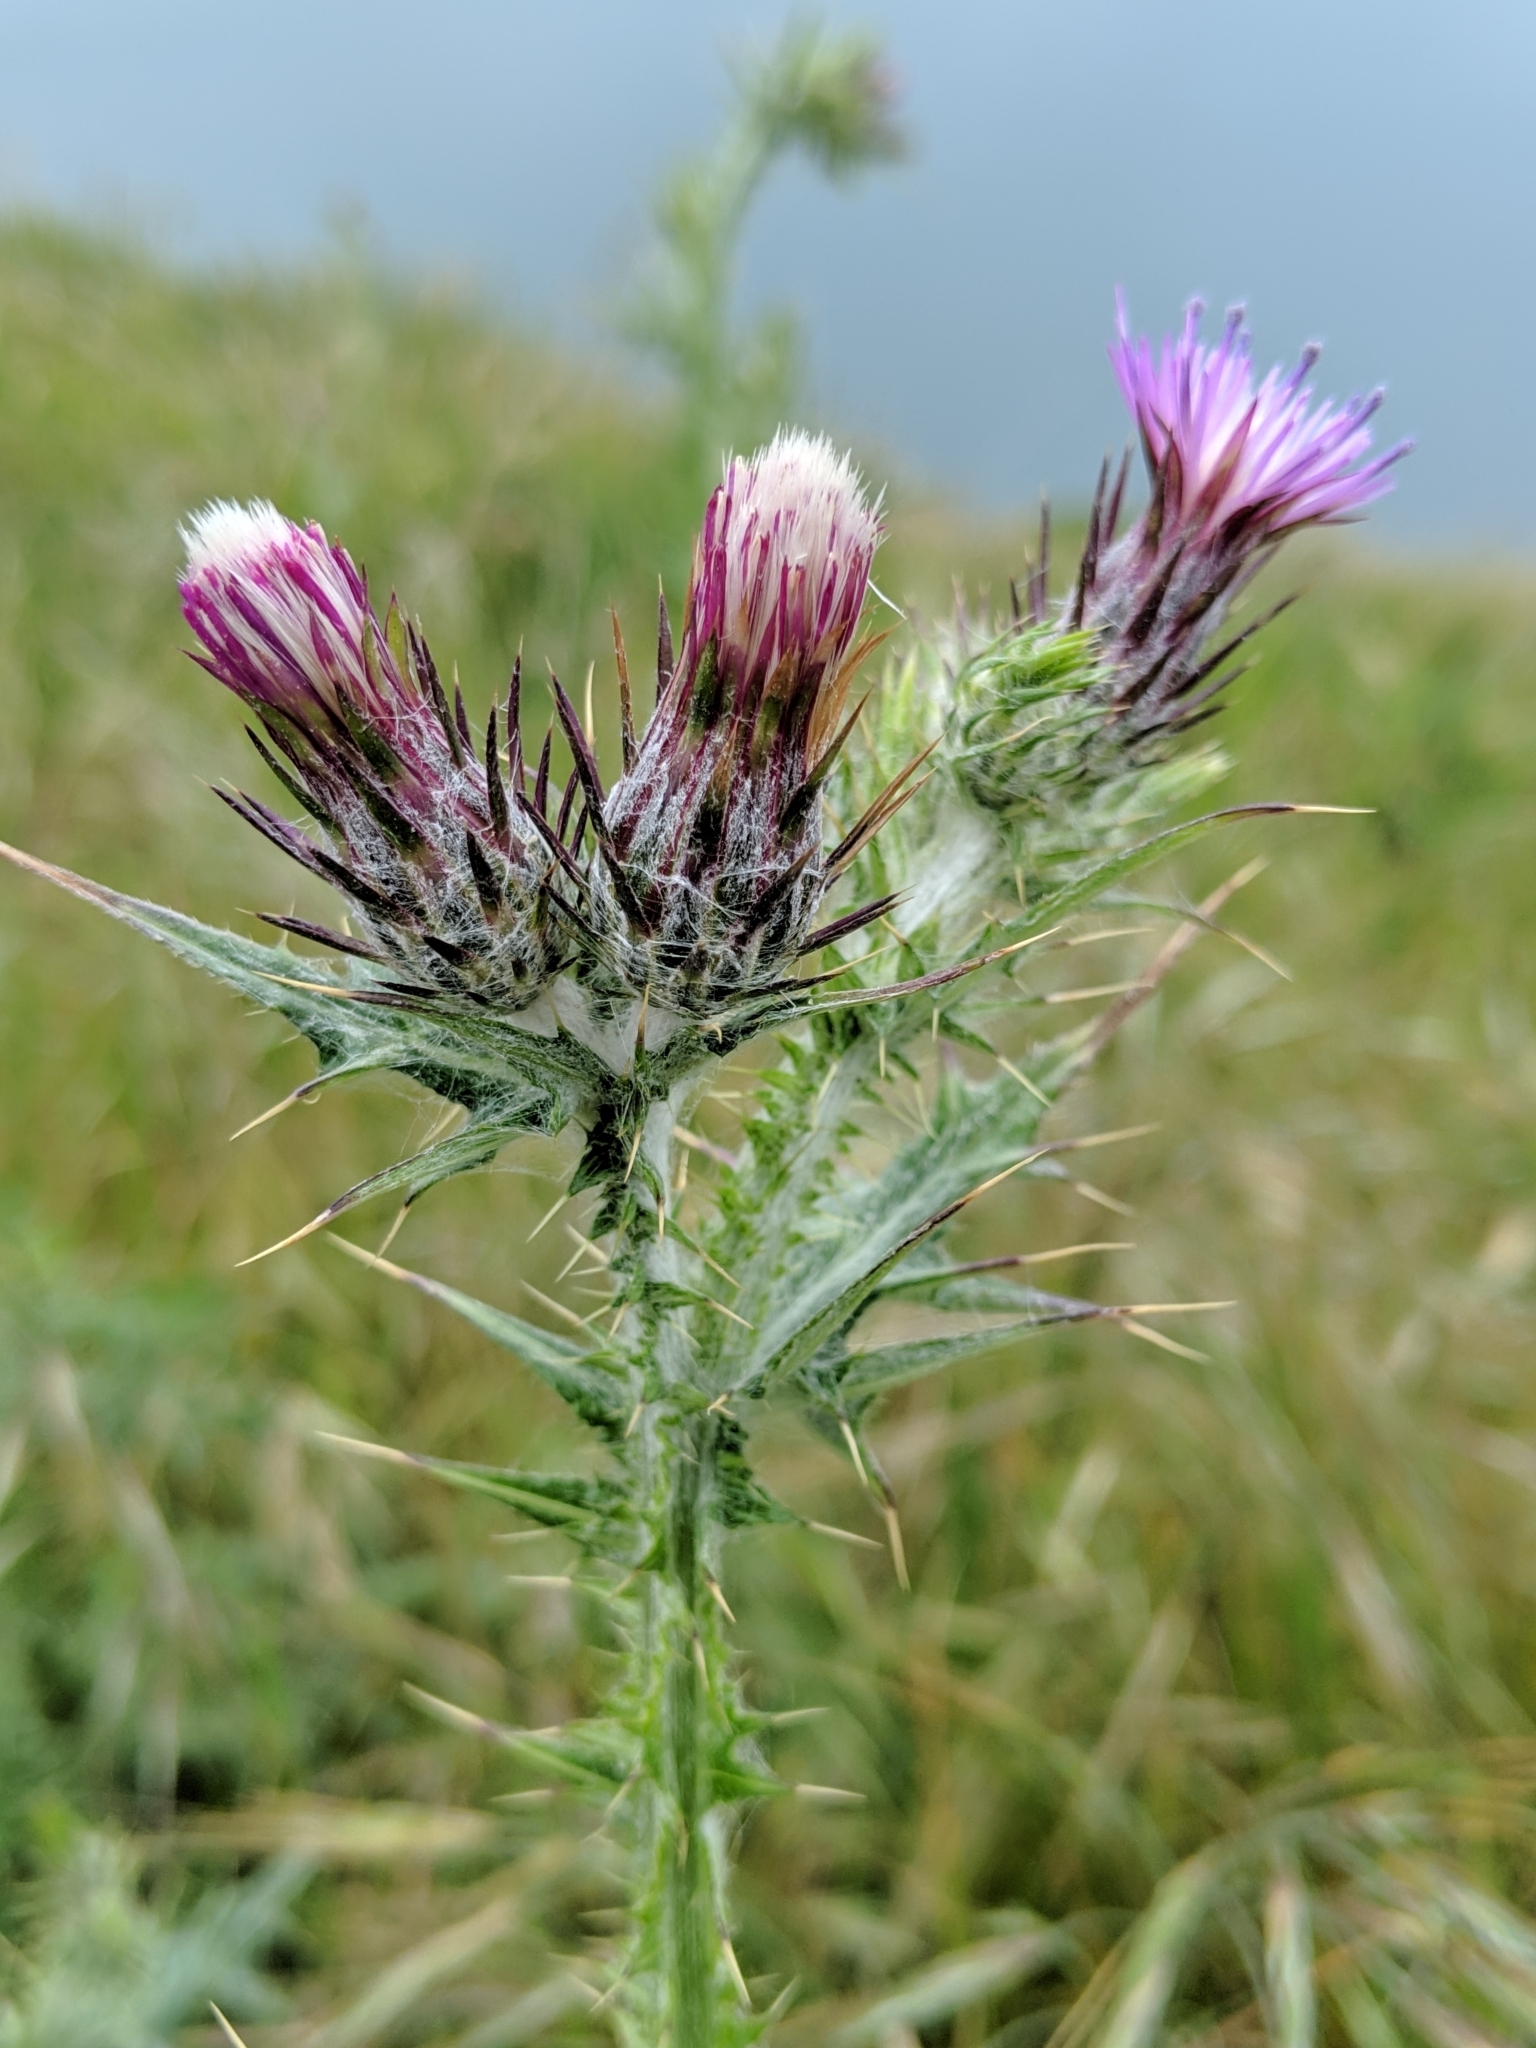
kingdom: Plantae
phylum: Tracheophyta
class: Magnoliopsida
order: Asterales
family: Asteraceae
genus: Carduus
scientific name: Carduus pycnocephalus
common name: Plymouth thistle
